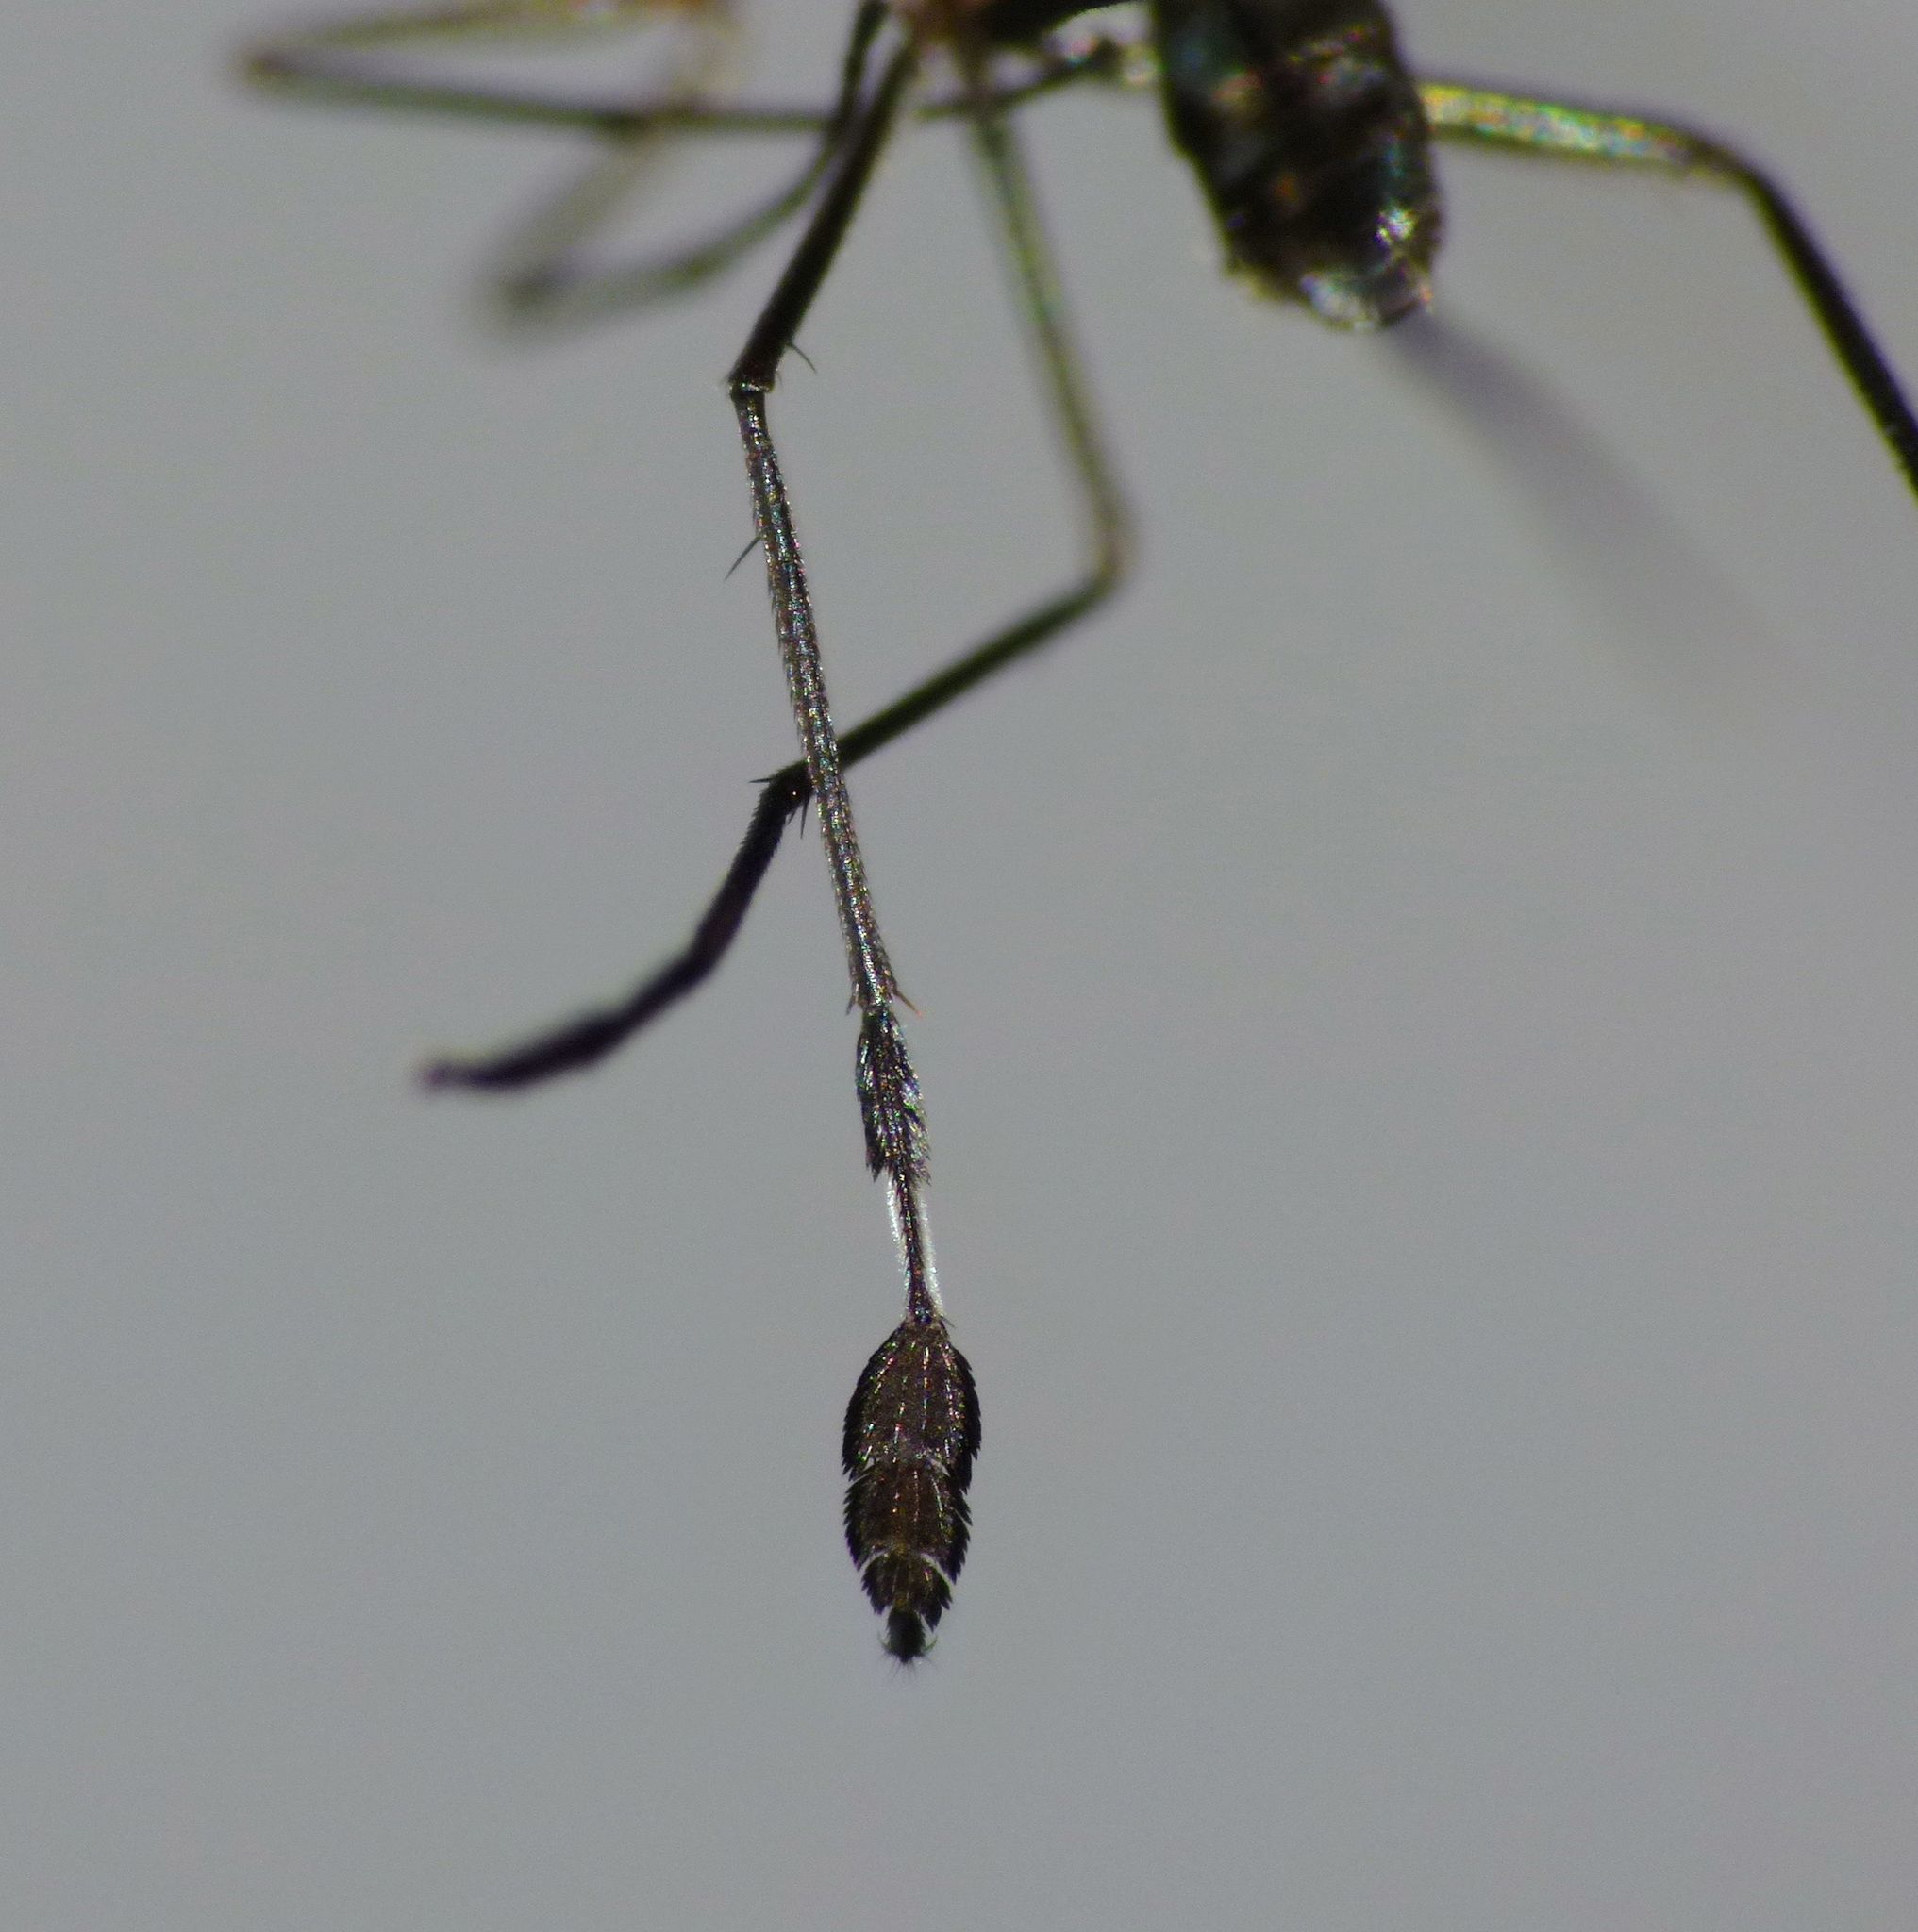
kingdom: Animalia
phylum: Arthropoda
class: Insecta
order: Diptera
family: Dolichopodidae
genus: Filatopus
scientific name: Filatopus ornatus
